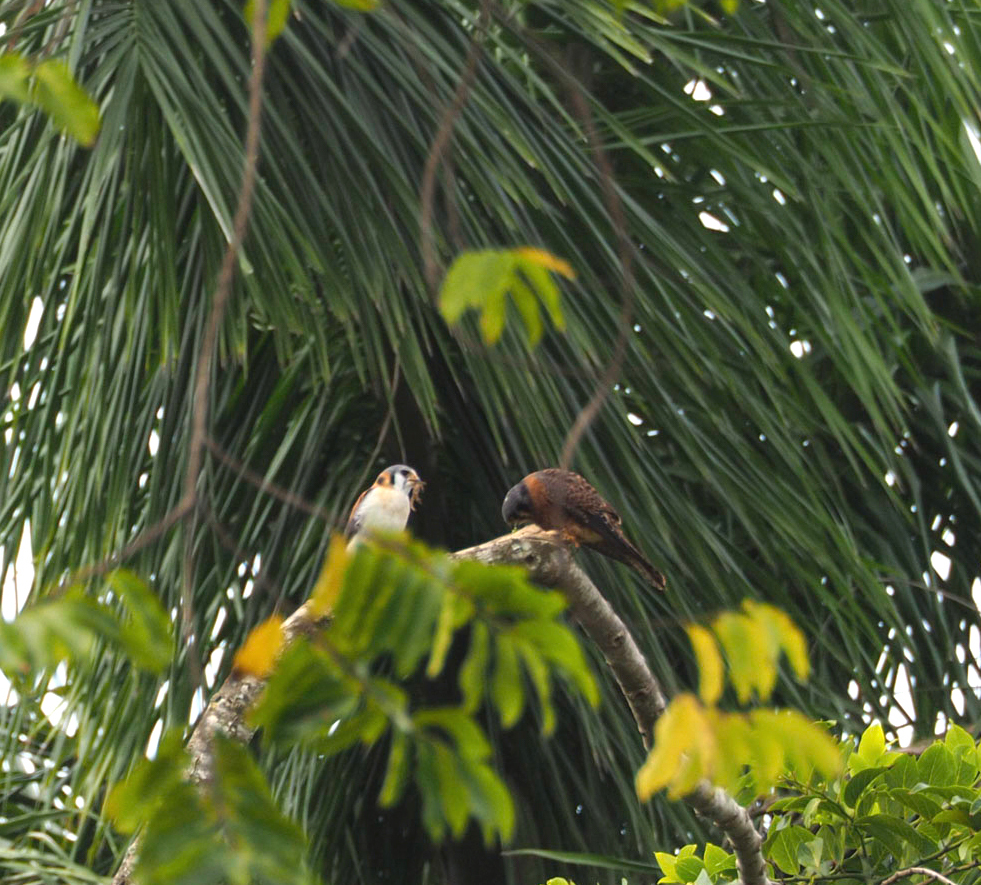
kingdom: Animalia
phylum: Chordata
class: Aves
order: Falconiformes
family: Falconidae
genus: Falco
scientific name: Falco sparverius
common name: American kestrel
